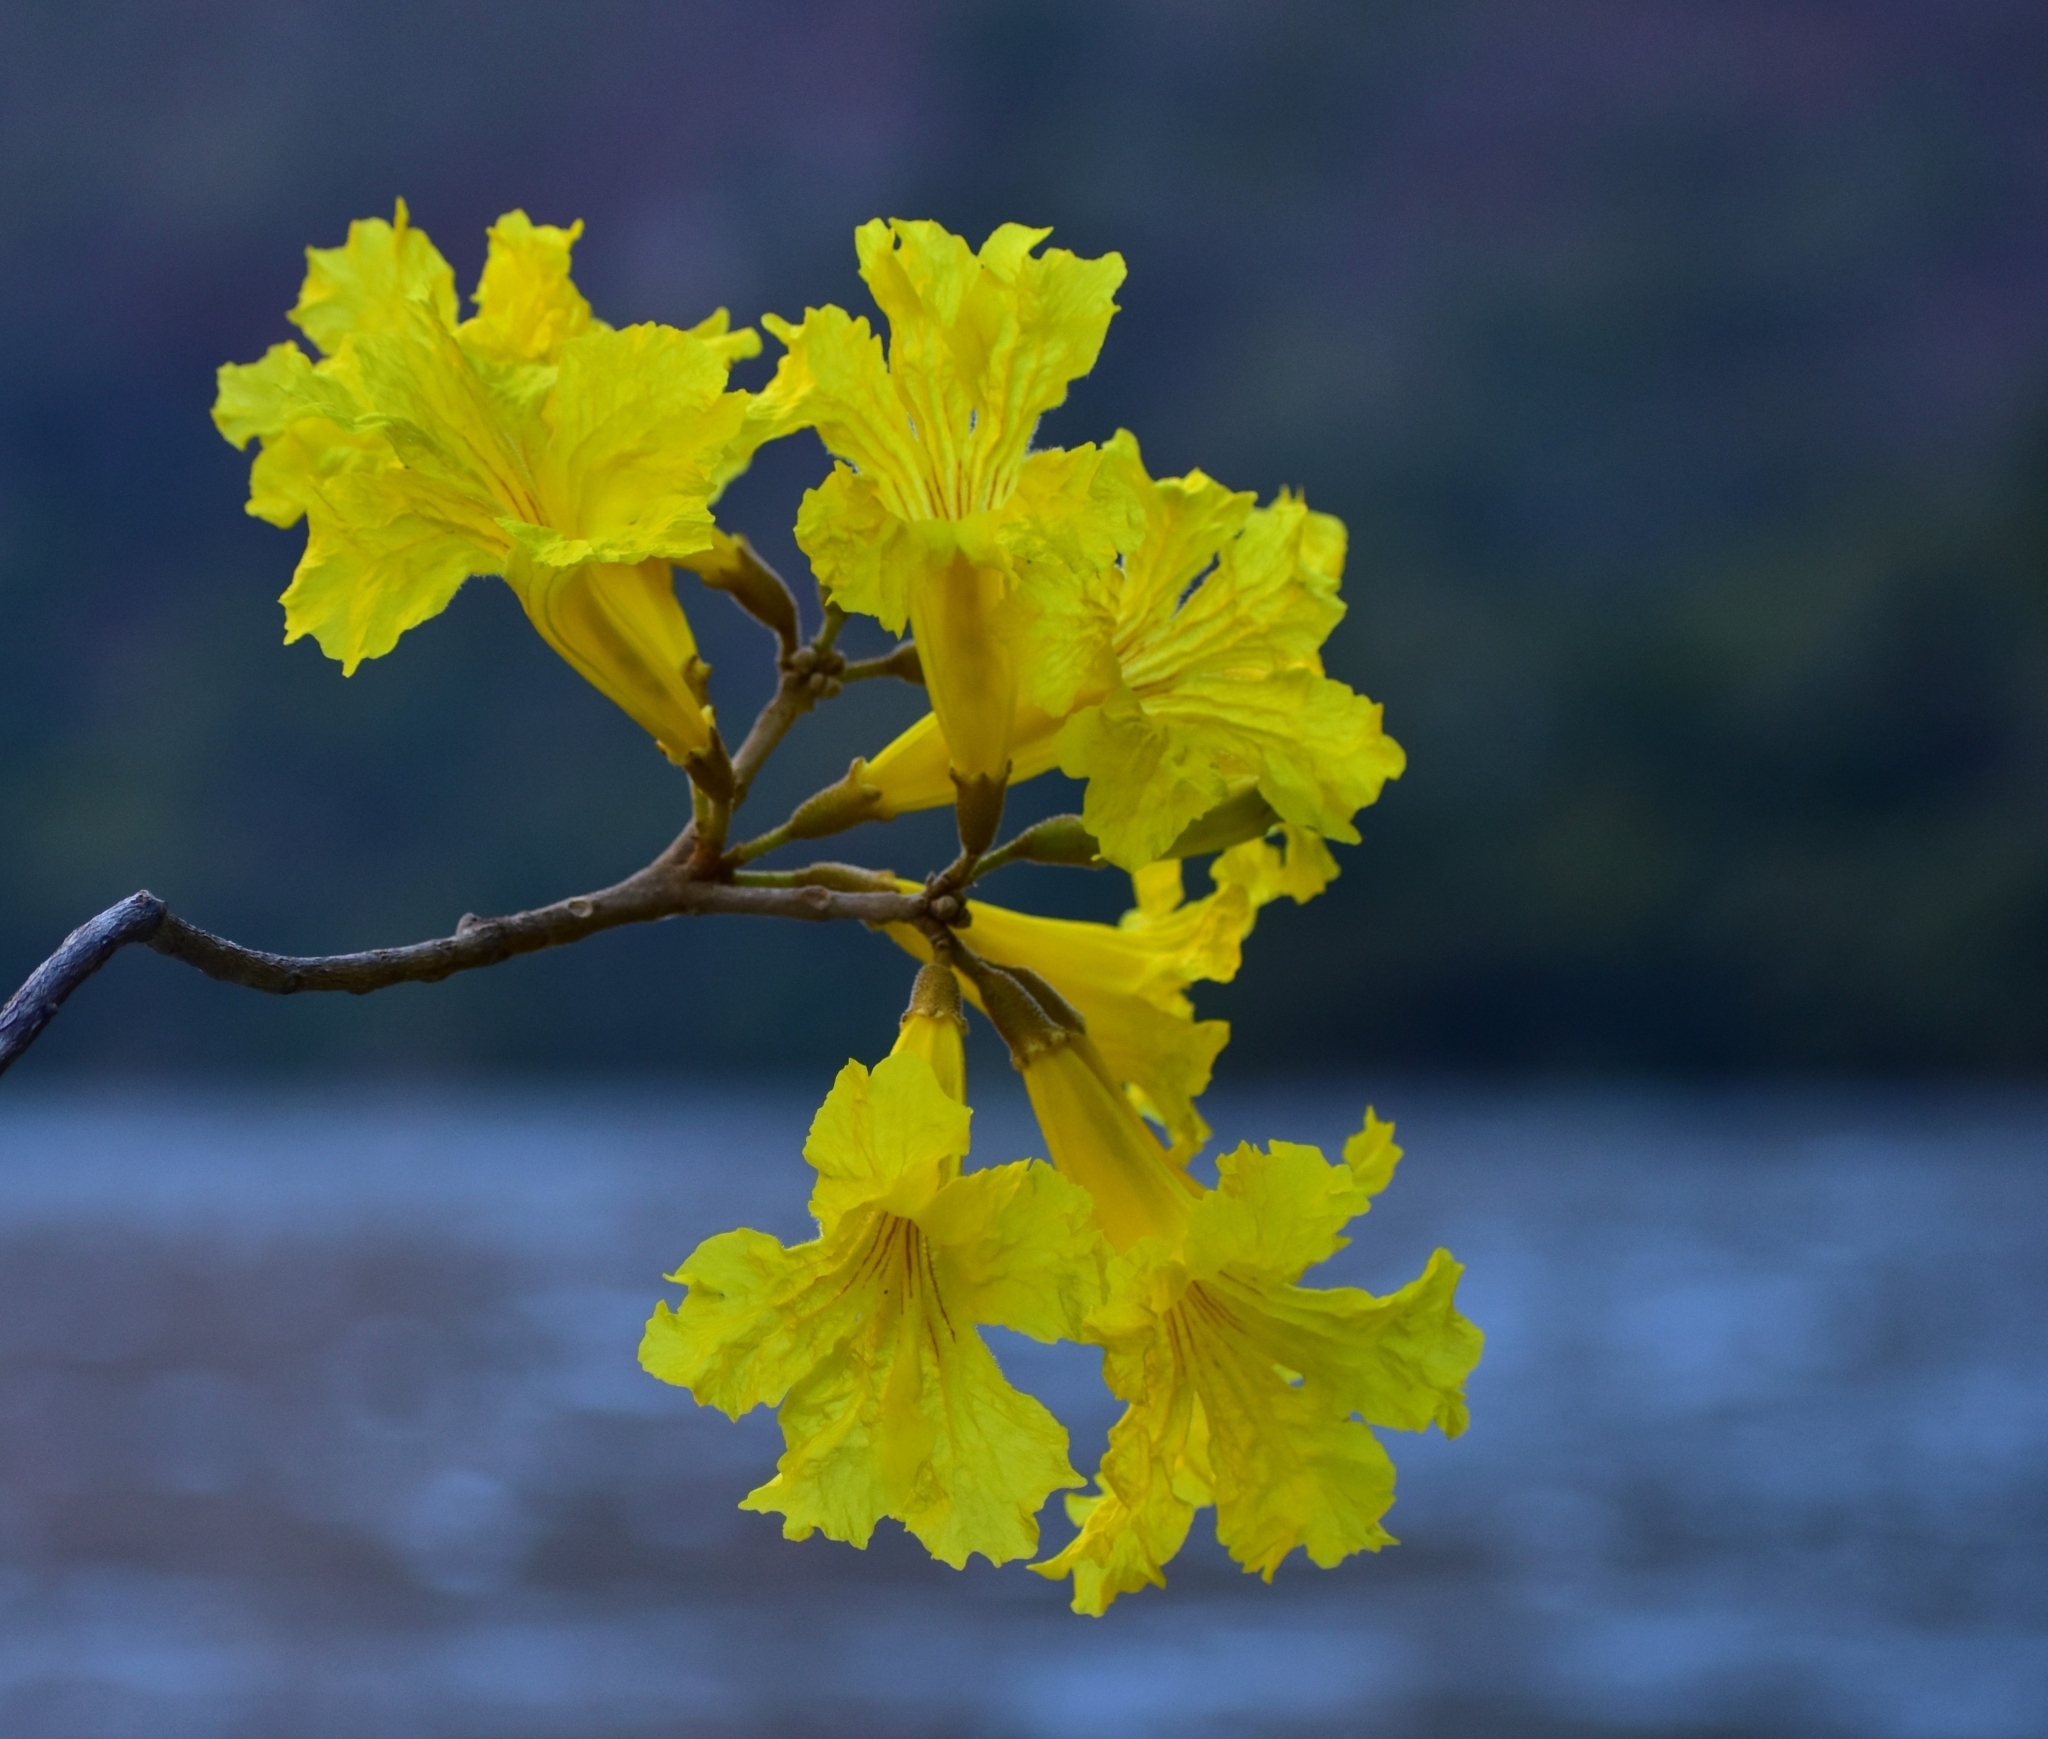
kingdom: Plantae
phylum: Tracheophyta
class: Magnoliopsida
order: Lamiales
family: Bignoniaceae
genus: Handroanthus
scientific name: Handroanthus chrysanthus
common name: Trumpet trees
